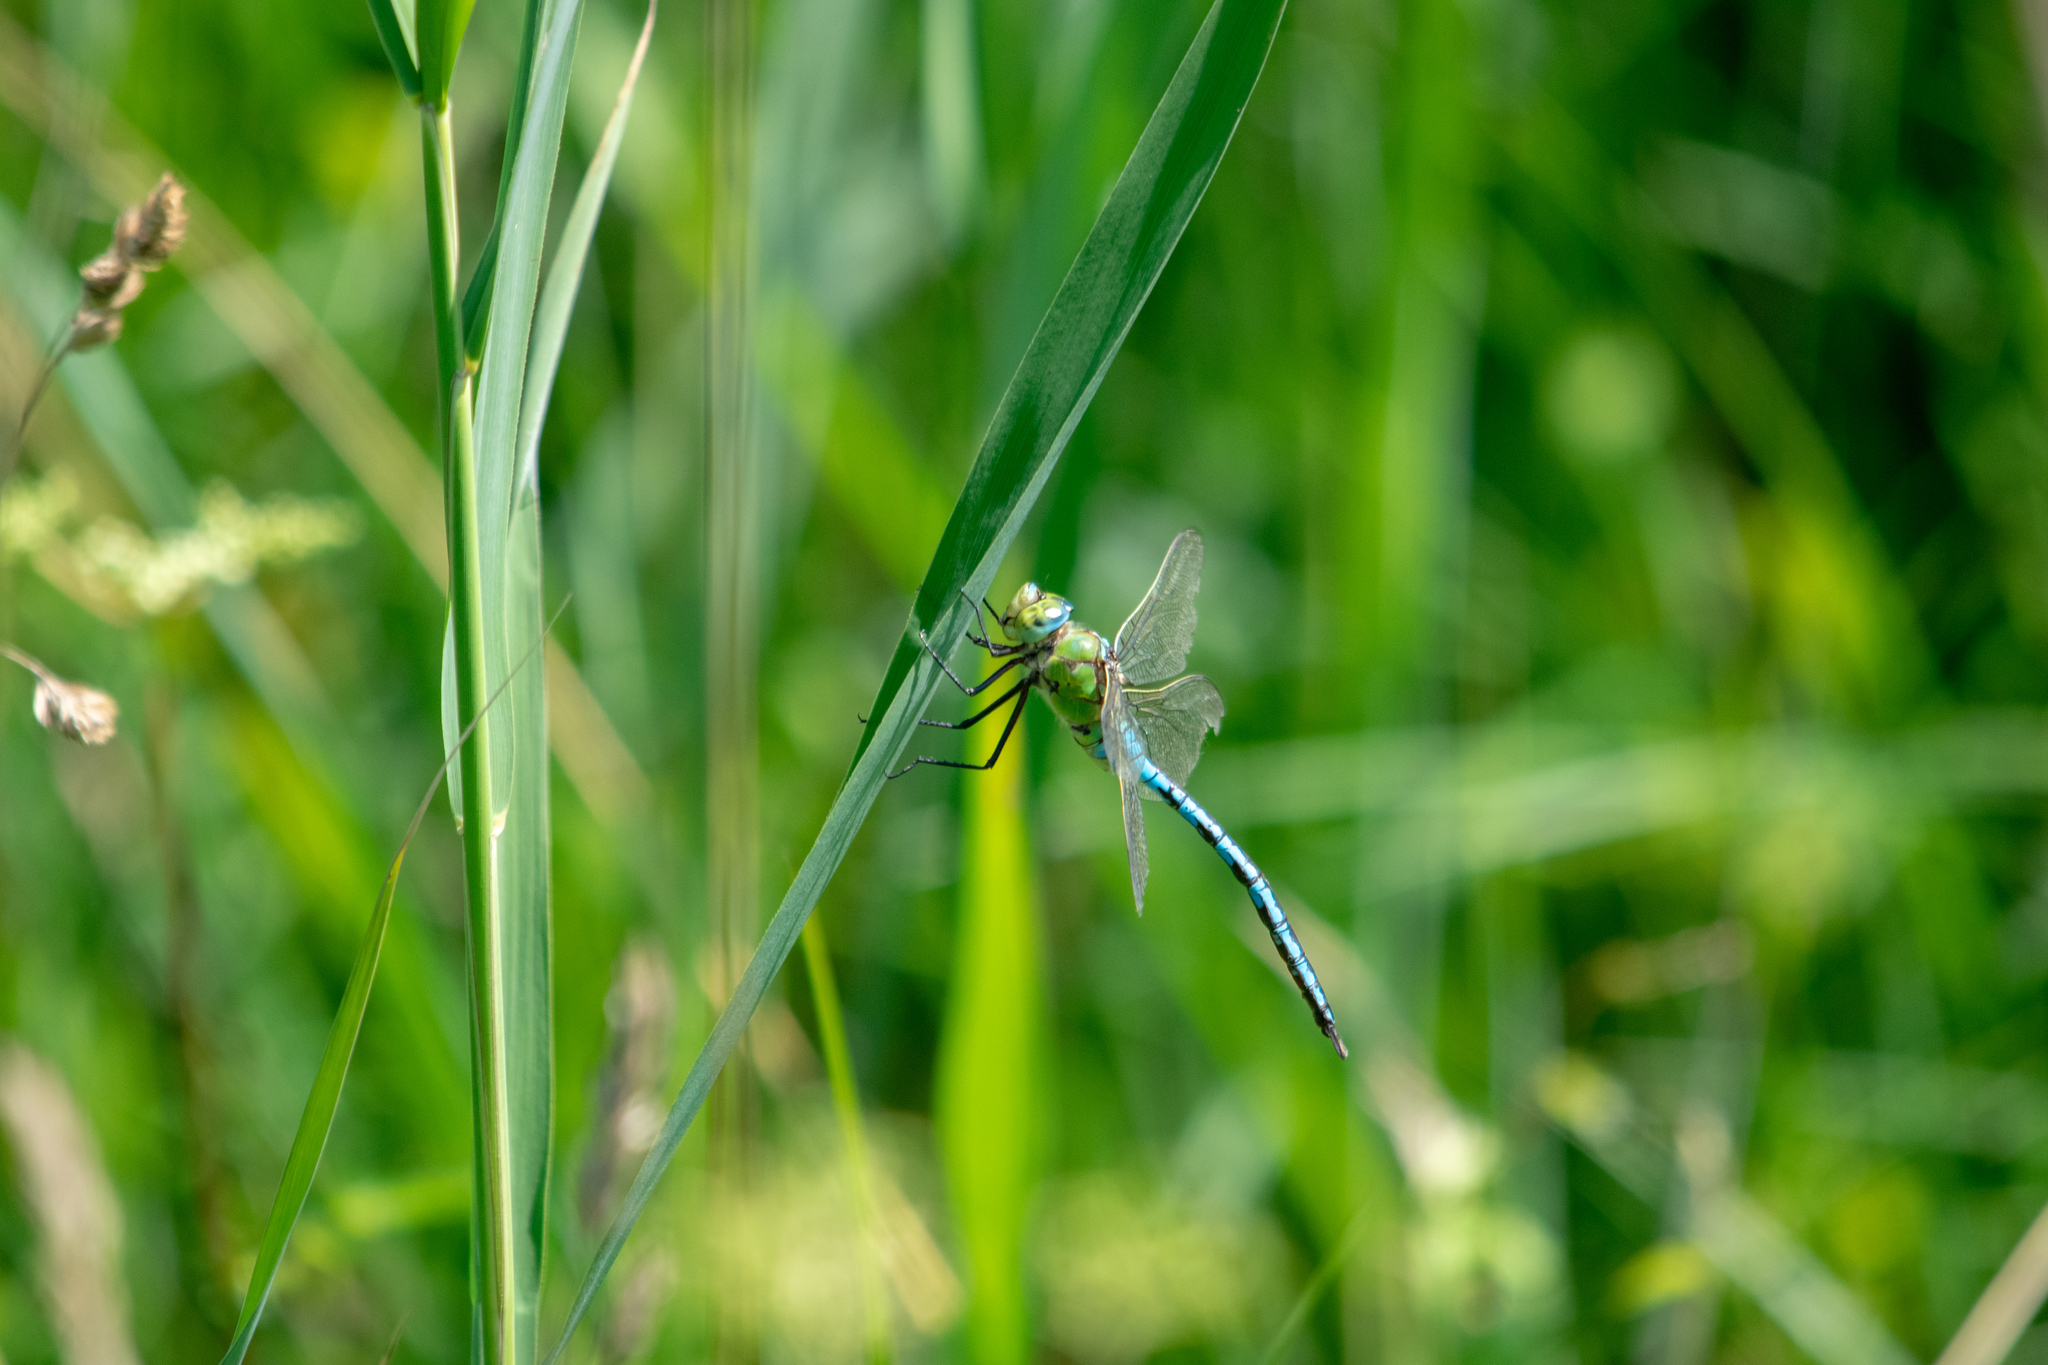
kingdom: Animalia
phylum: Arthropoda
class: Insecta
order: Odonata
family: Aeshnidae
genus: Anax
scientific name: Anax imperator
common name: Emperor dragonfly
